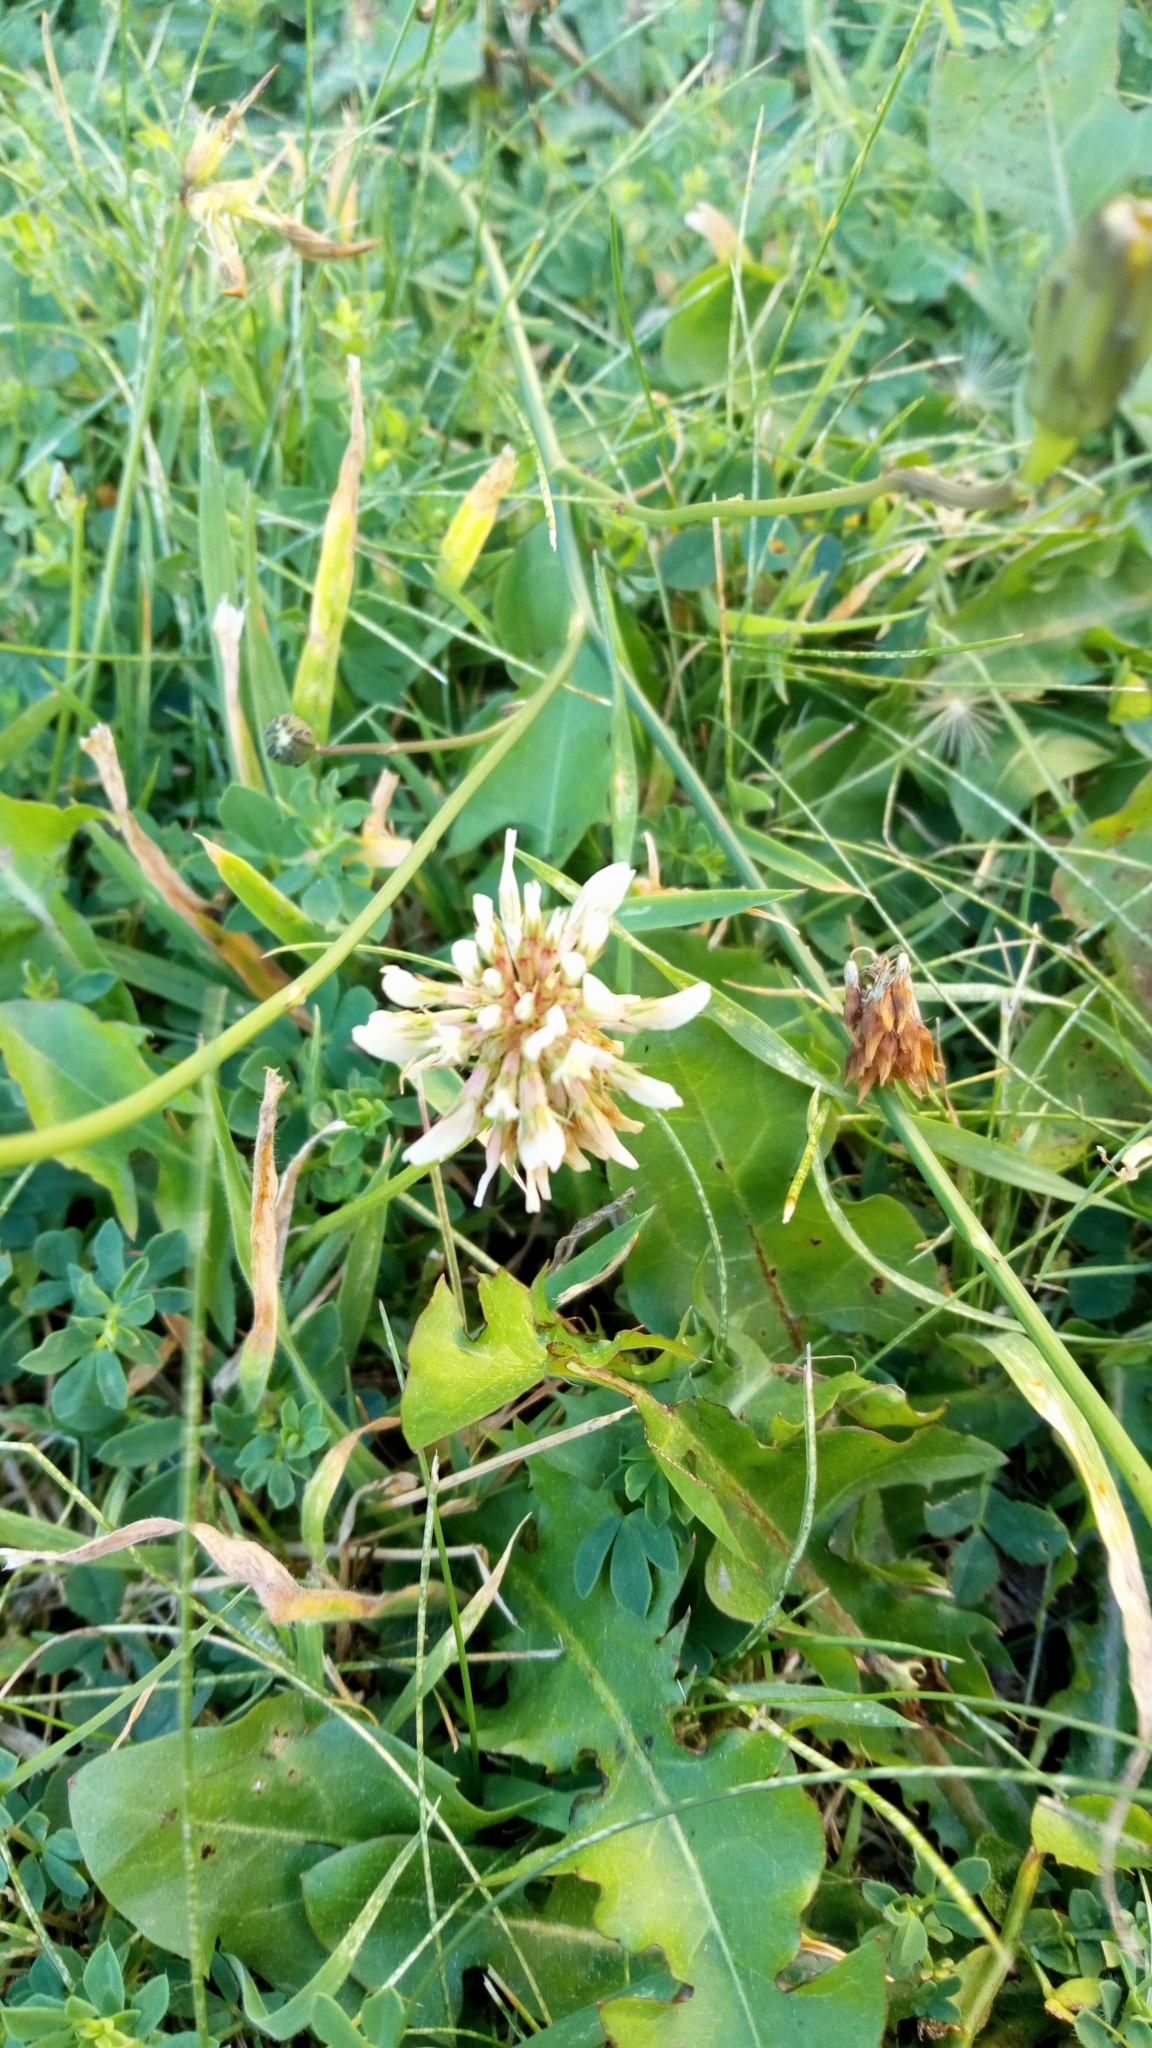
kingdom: Plantae
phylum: Tracheophyta
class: Magnoliopsida
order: Fabales
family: Fabaceae
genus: Trifolium
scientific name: Trifolium repens
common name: White clover
